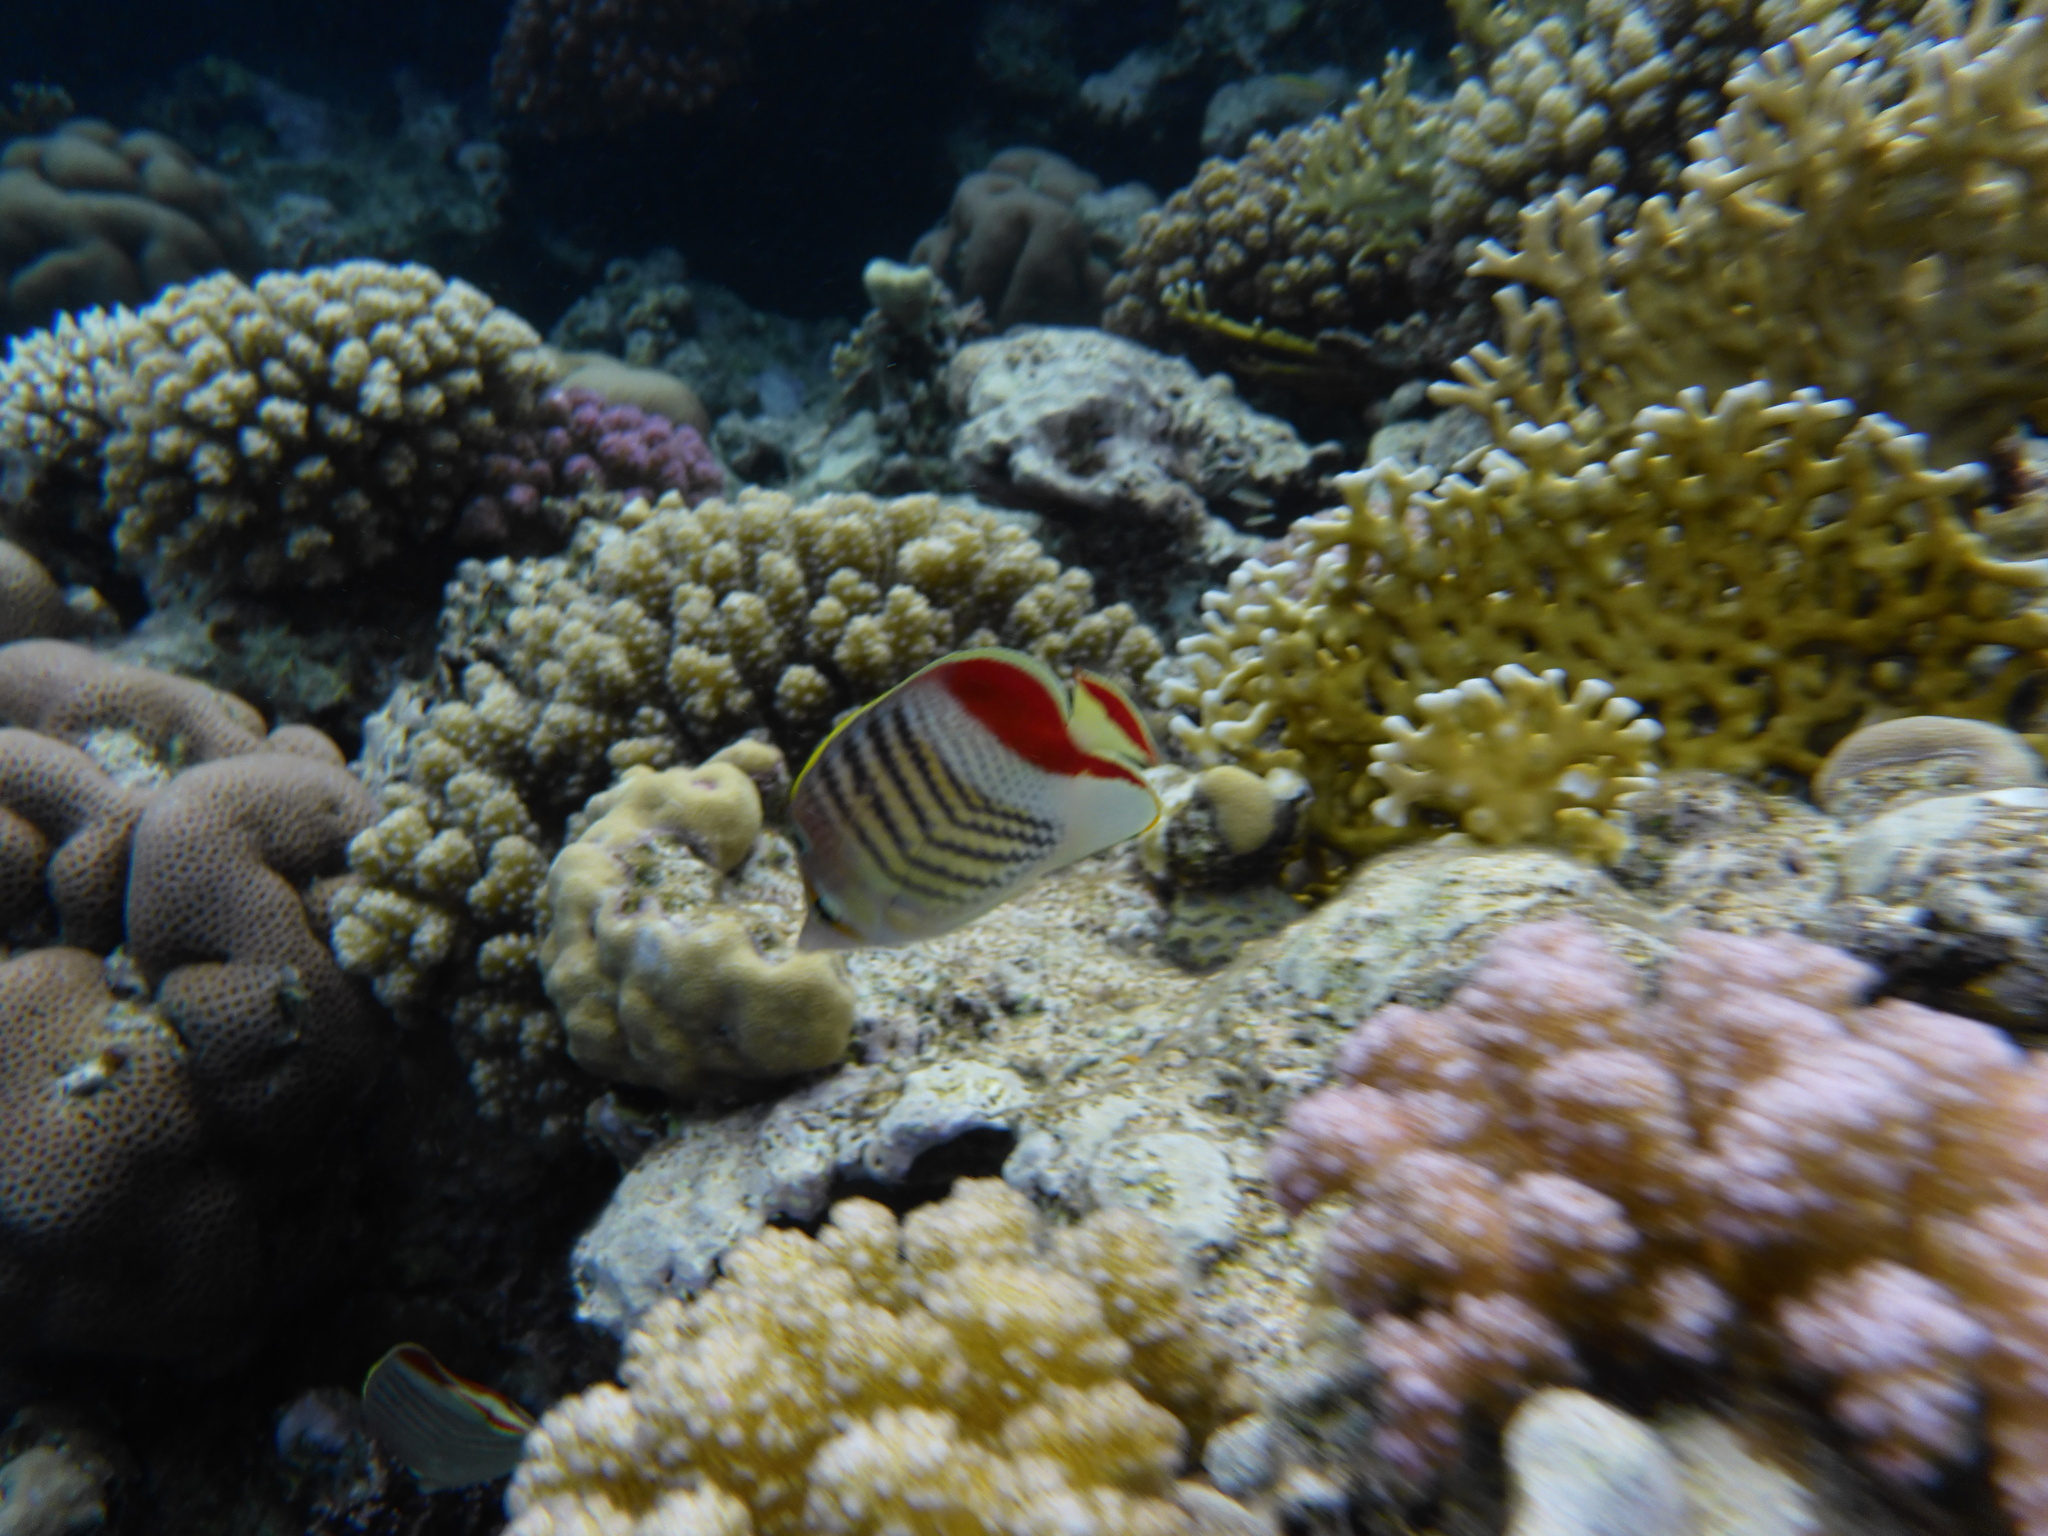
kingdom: Animalia
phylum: Chordata
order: Perciformes
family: Chaetodontidae
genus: Chaetodon
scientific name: Chaetodon paucifasciatus
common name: Crown butterflyfish
